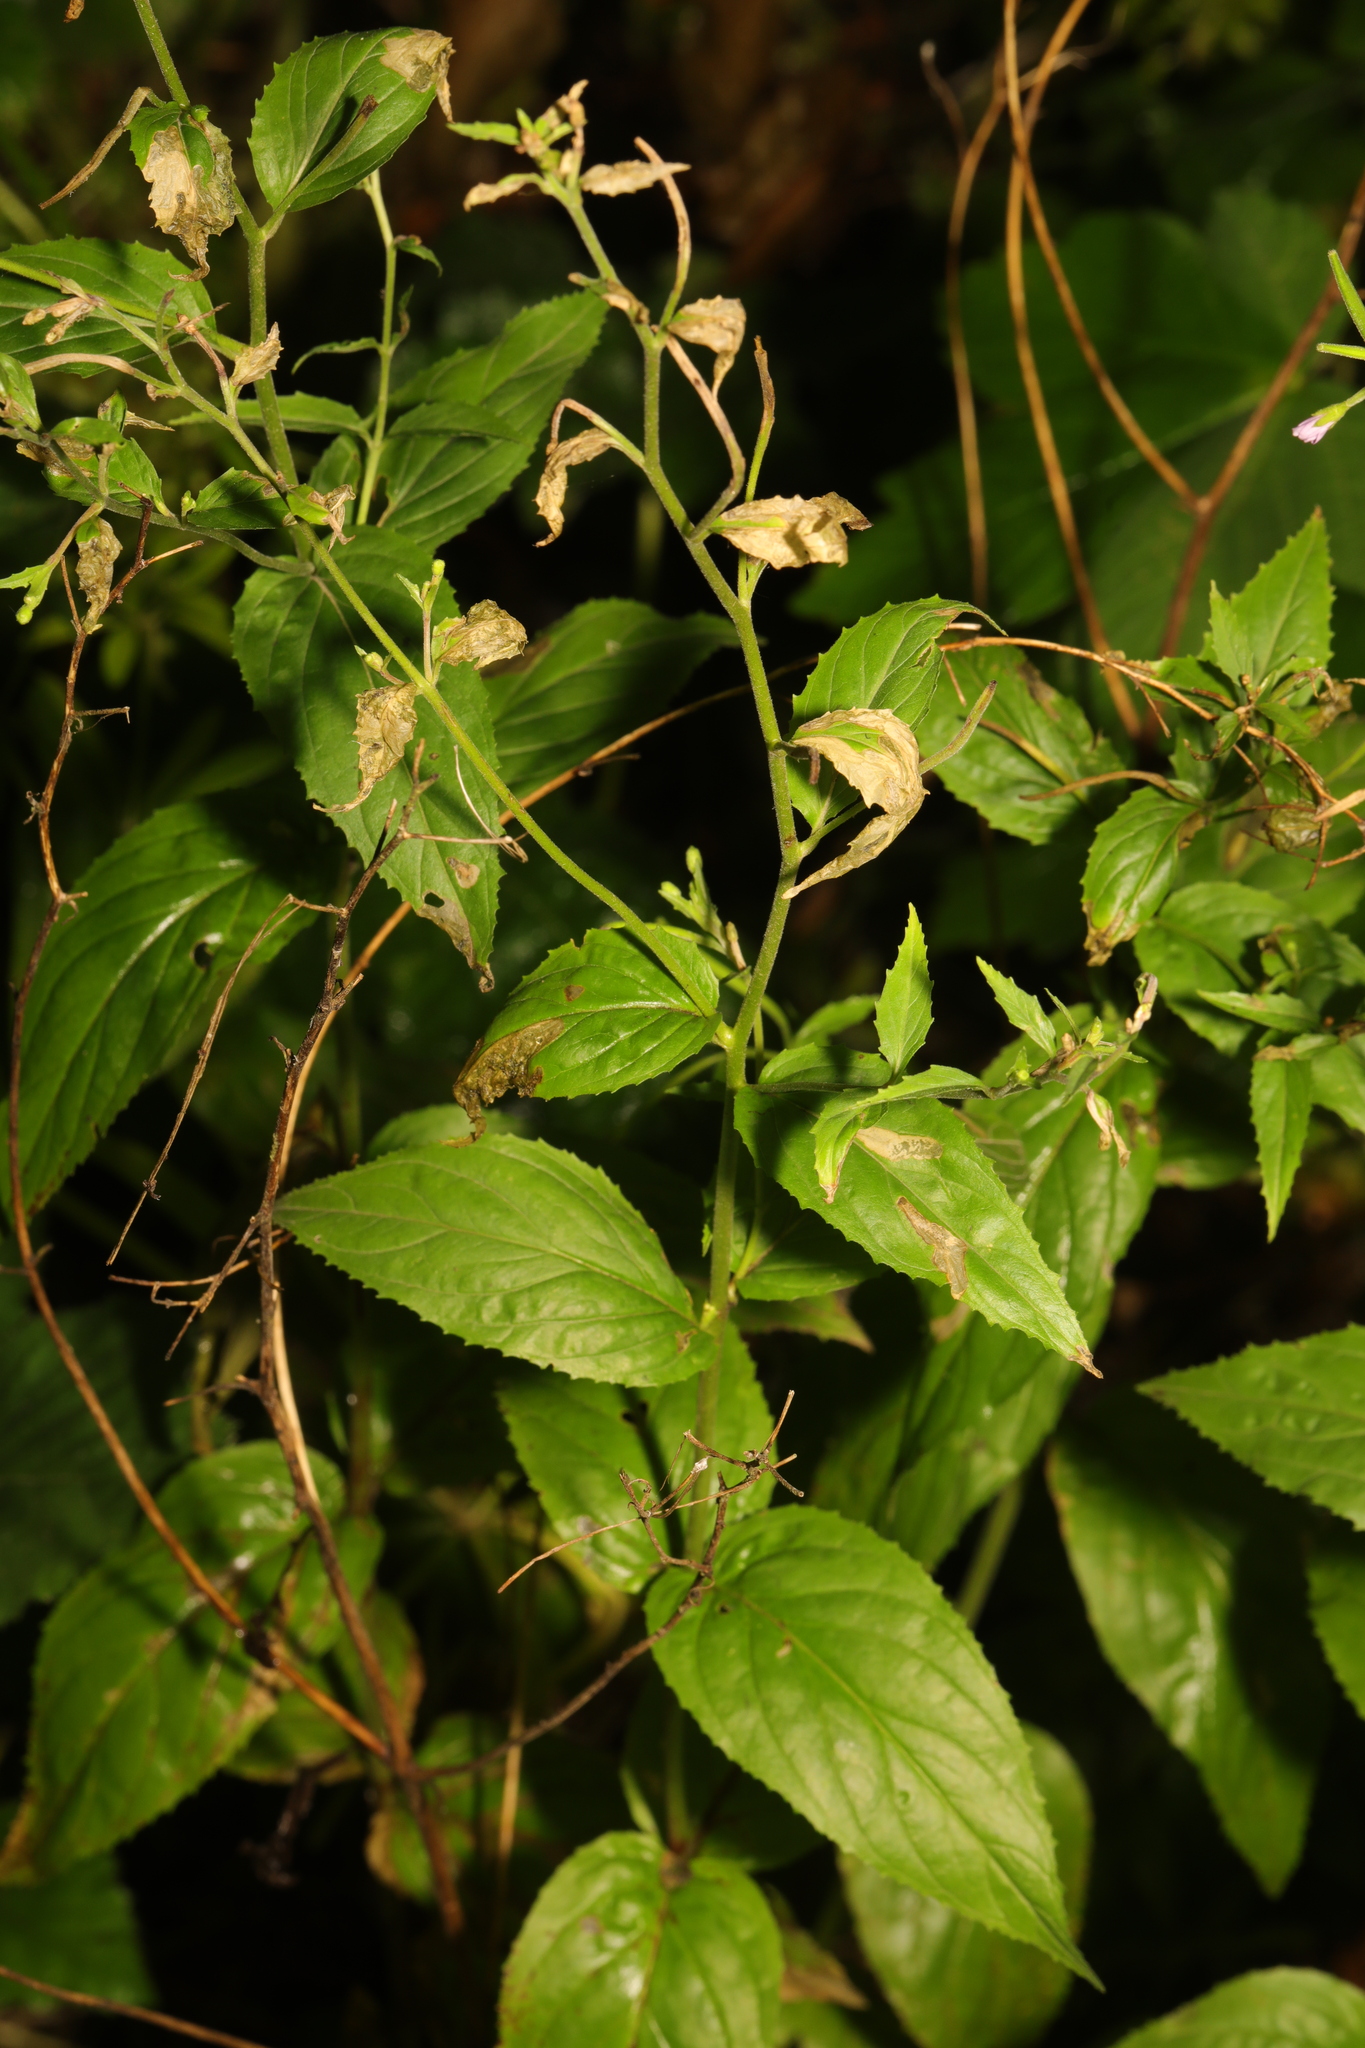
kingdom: Plantae
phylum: Tracheophyta
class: Magnoliopsida
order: Myrtales
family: Onagraceae
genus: Epilobium
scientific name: Epilobium montanum
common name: Broad-leaved willowherb
